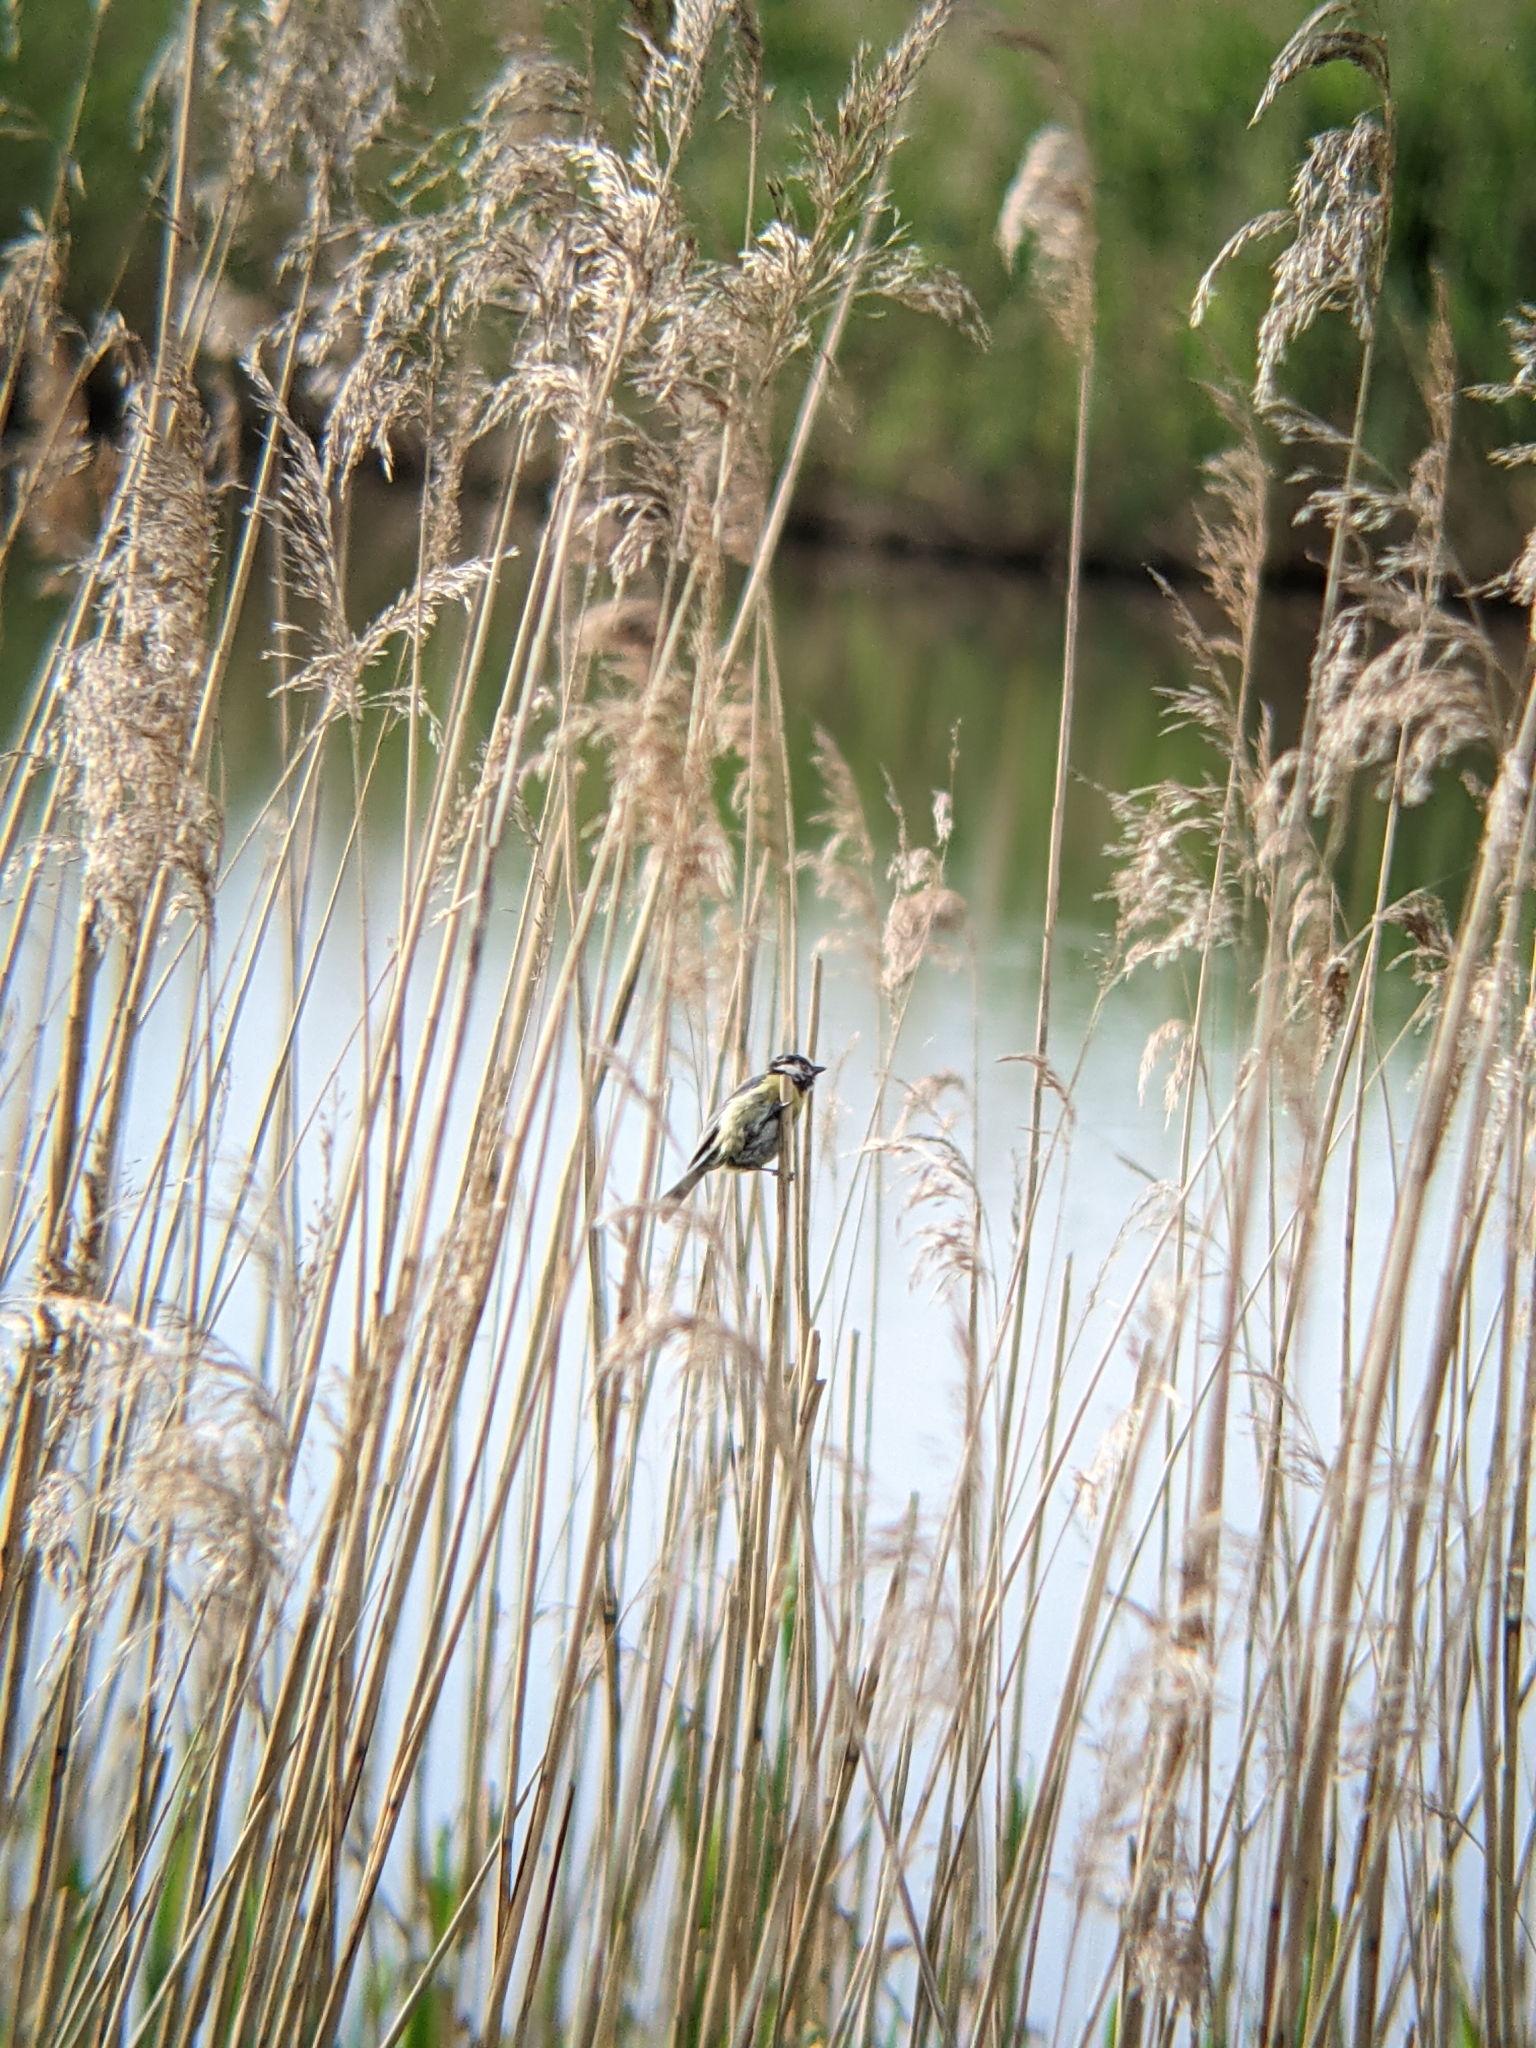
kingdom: Animalia
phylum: Chordata
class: Aves
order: Passeriformes
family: Paridae
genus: Cyanistes
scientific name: Cyanistes caeruleus
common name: Eurasian blue tit
